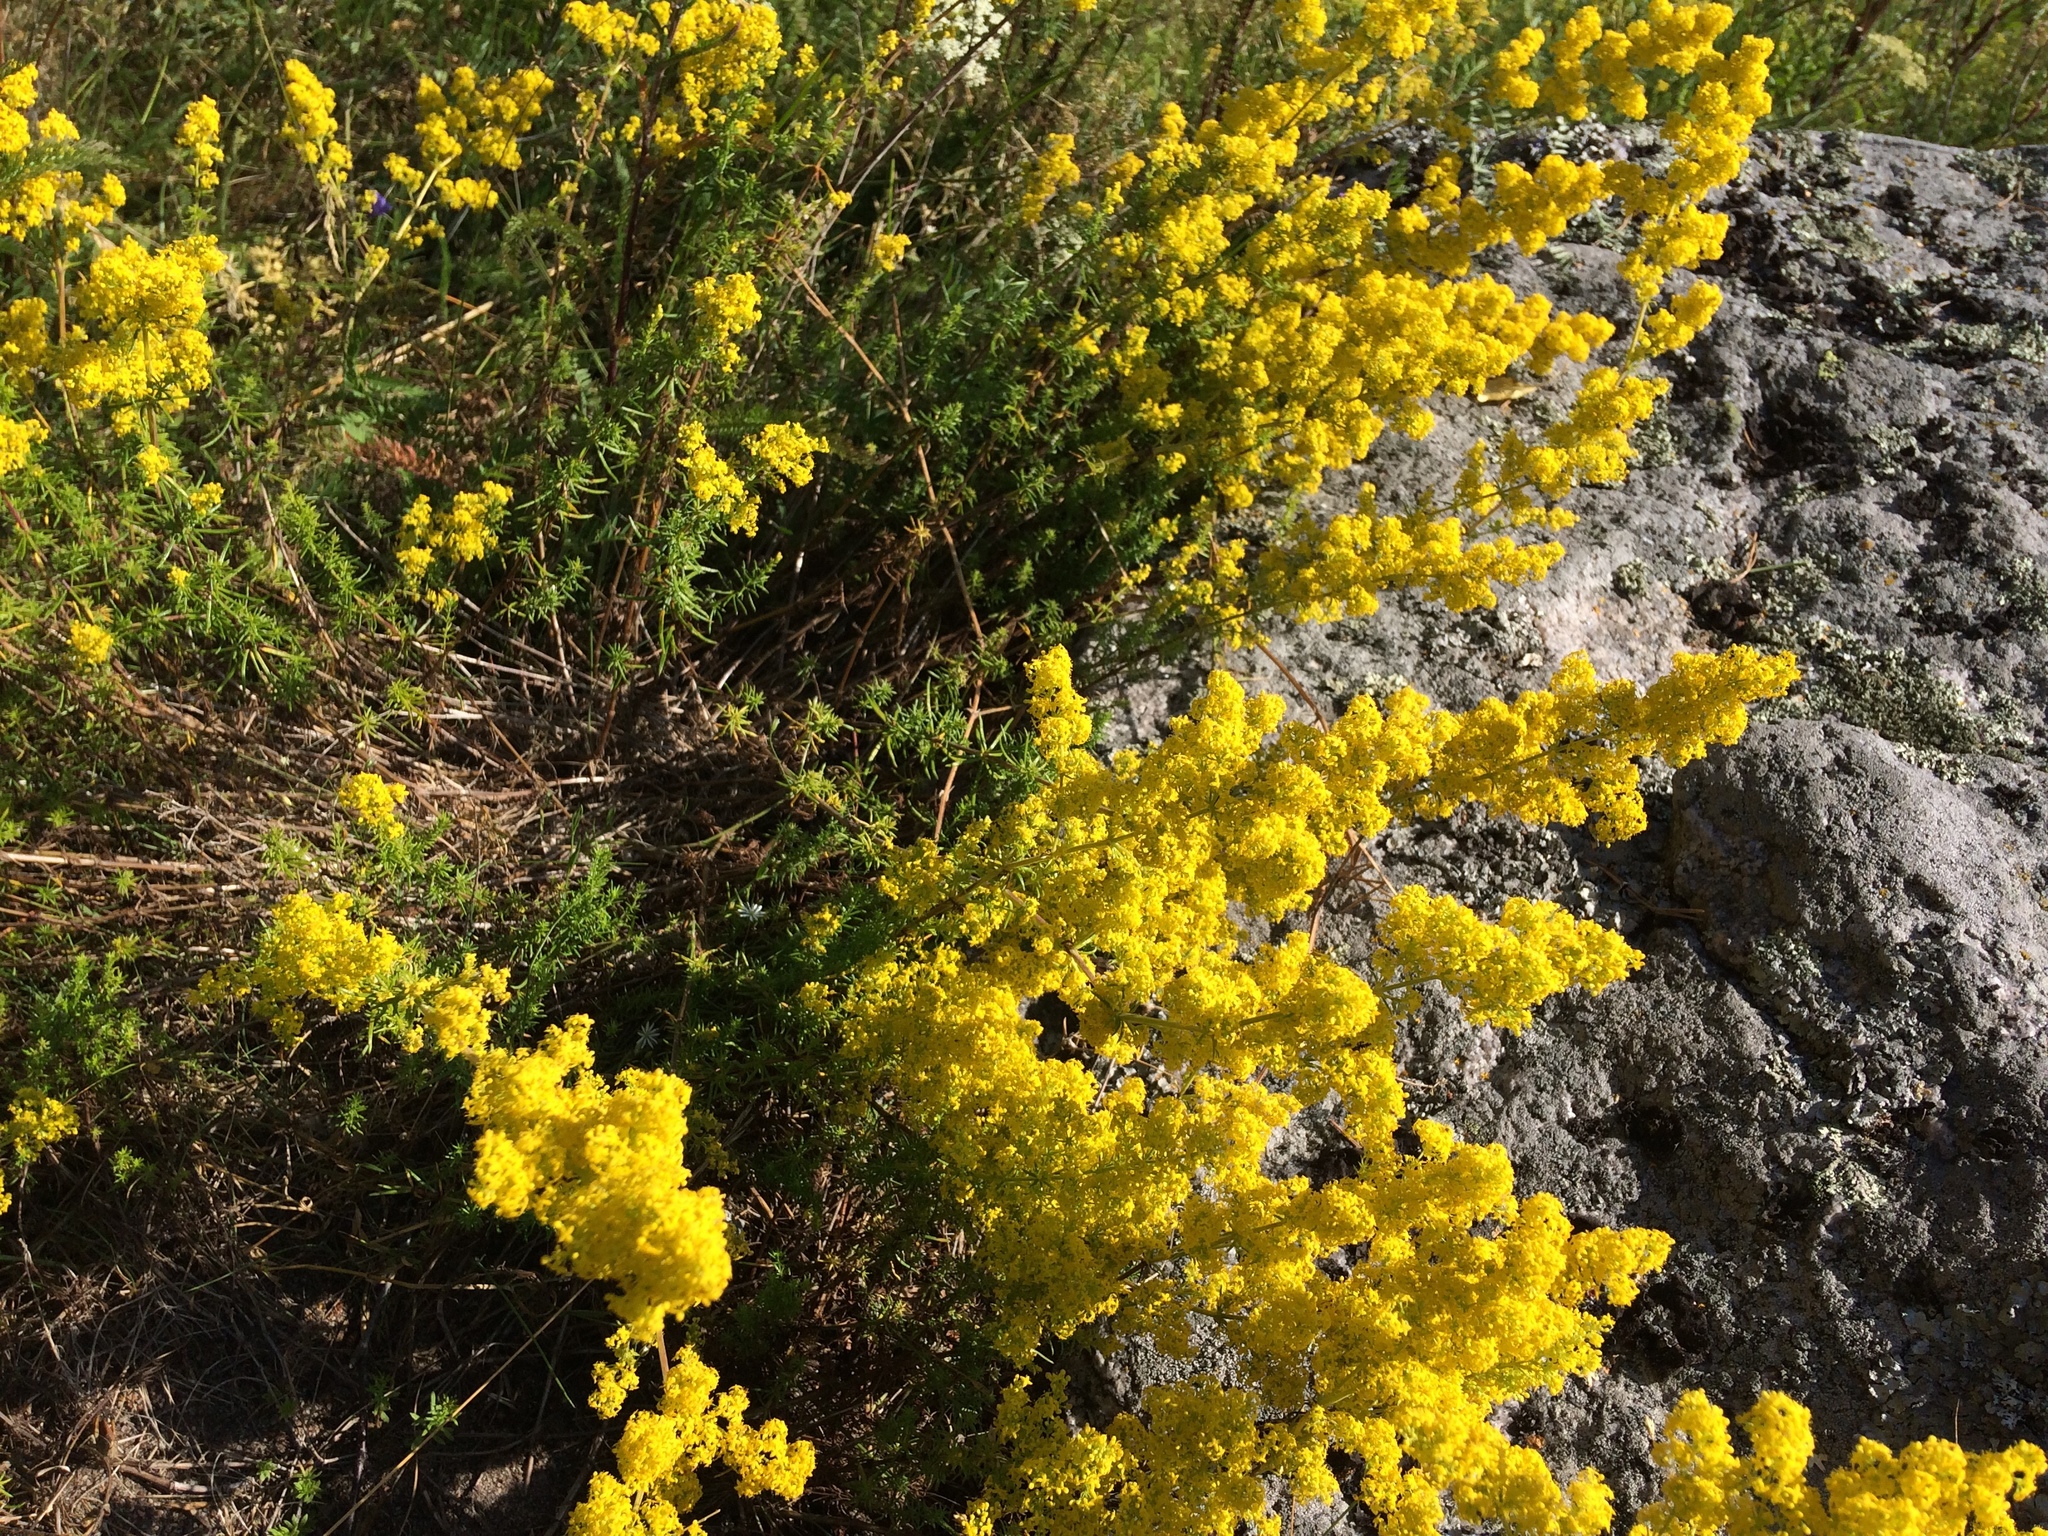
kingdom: Plantae
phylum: Tracheophyta
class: Magnoliopsida
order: Gentianales
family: Rubiaceae
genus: Galium
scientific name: Galium verum
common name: Lady's bedstraw
